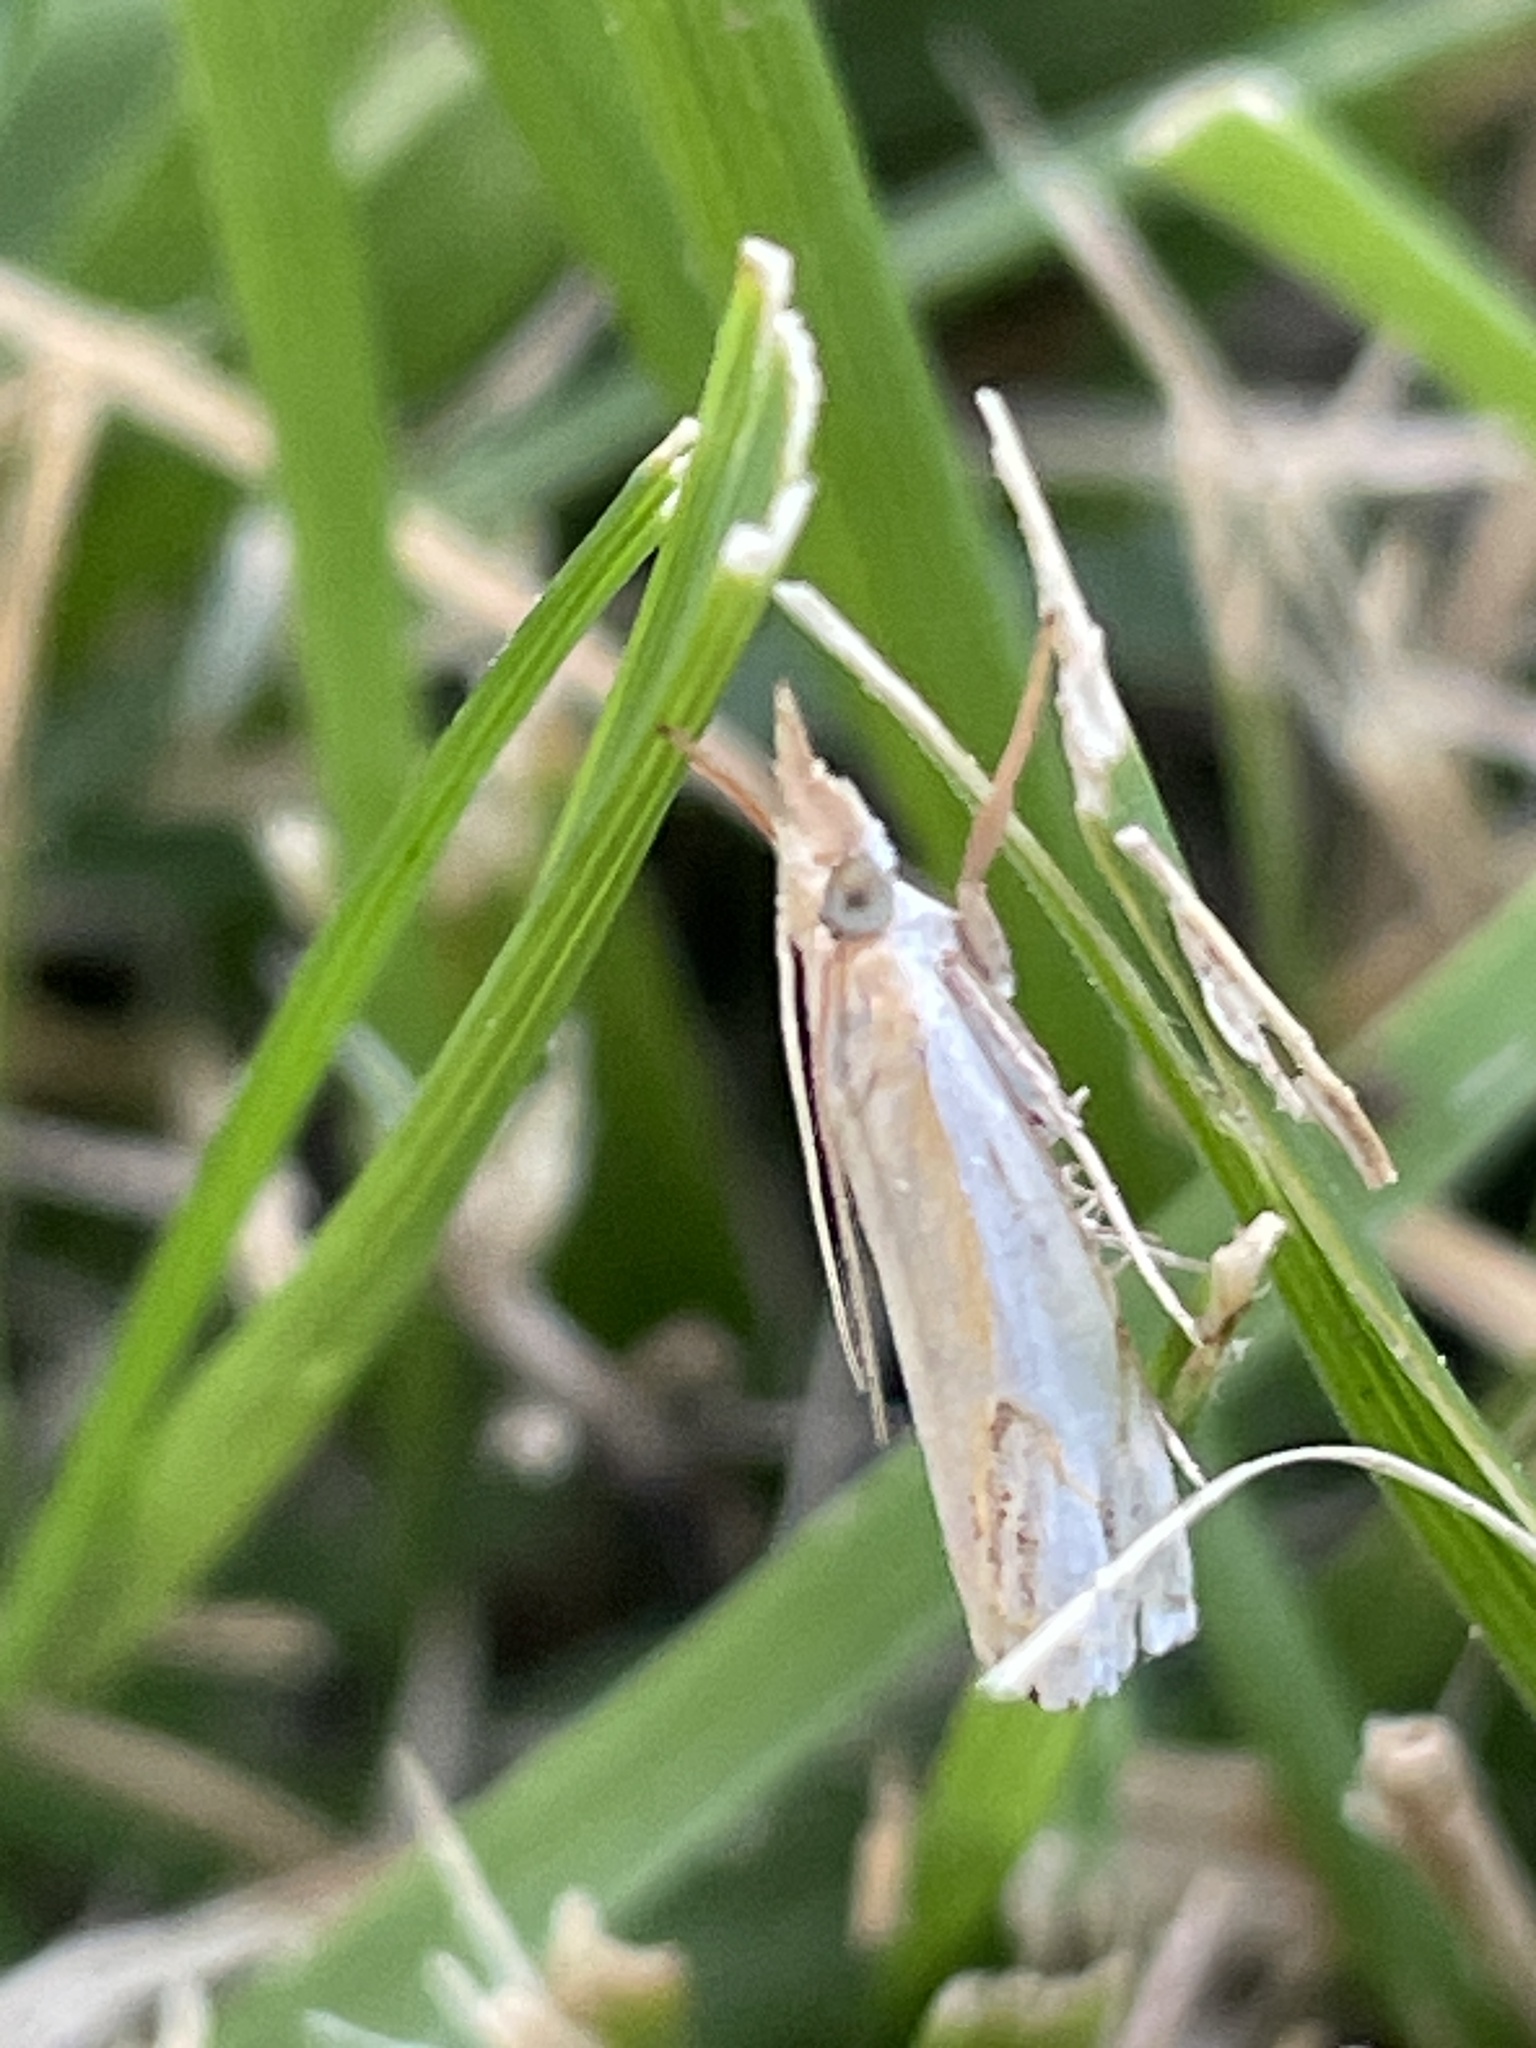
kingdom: Animalia
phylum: Arthropoda
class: Insecta
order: Lepidoptera
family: Crambidae
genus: Crambus
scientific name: Crambus agitatellus
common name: Double-banded grass-veneer
